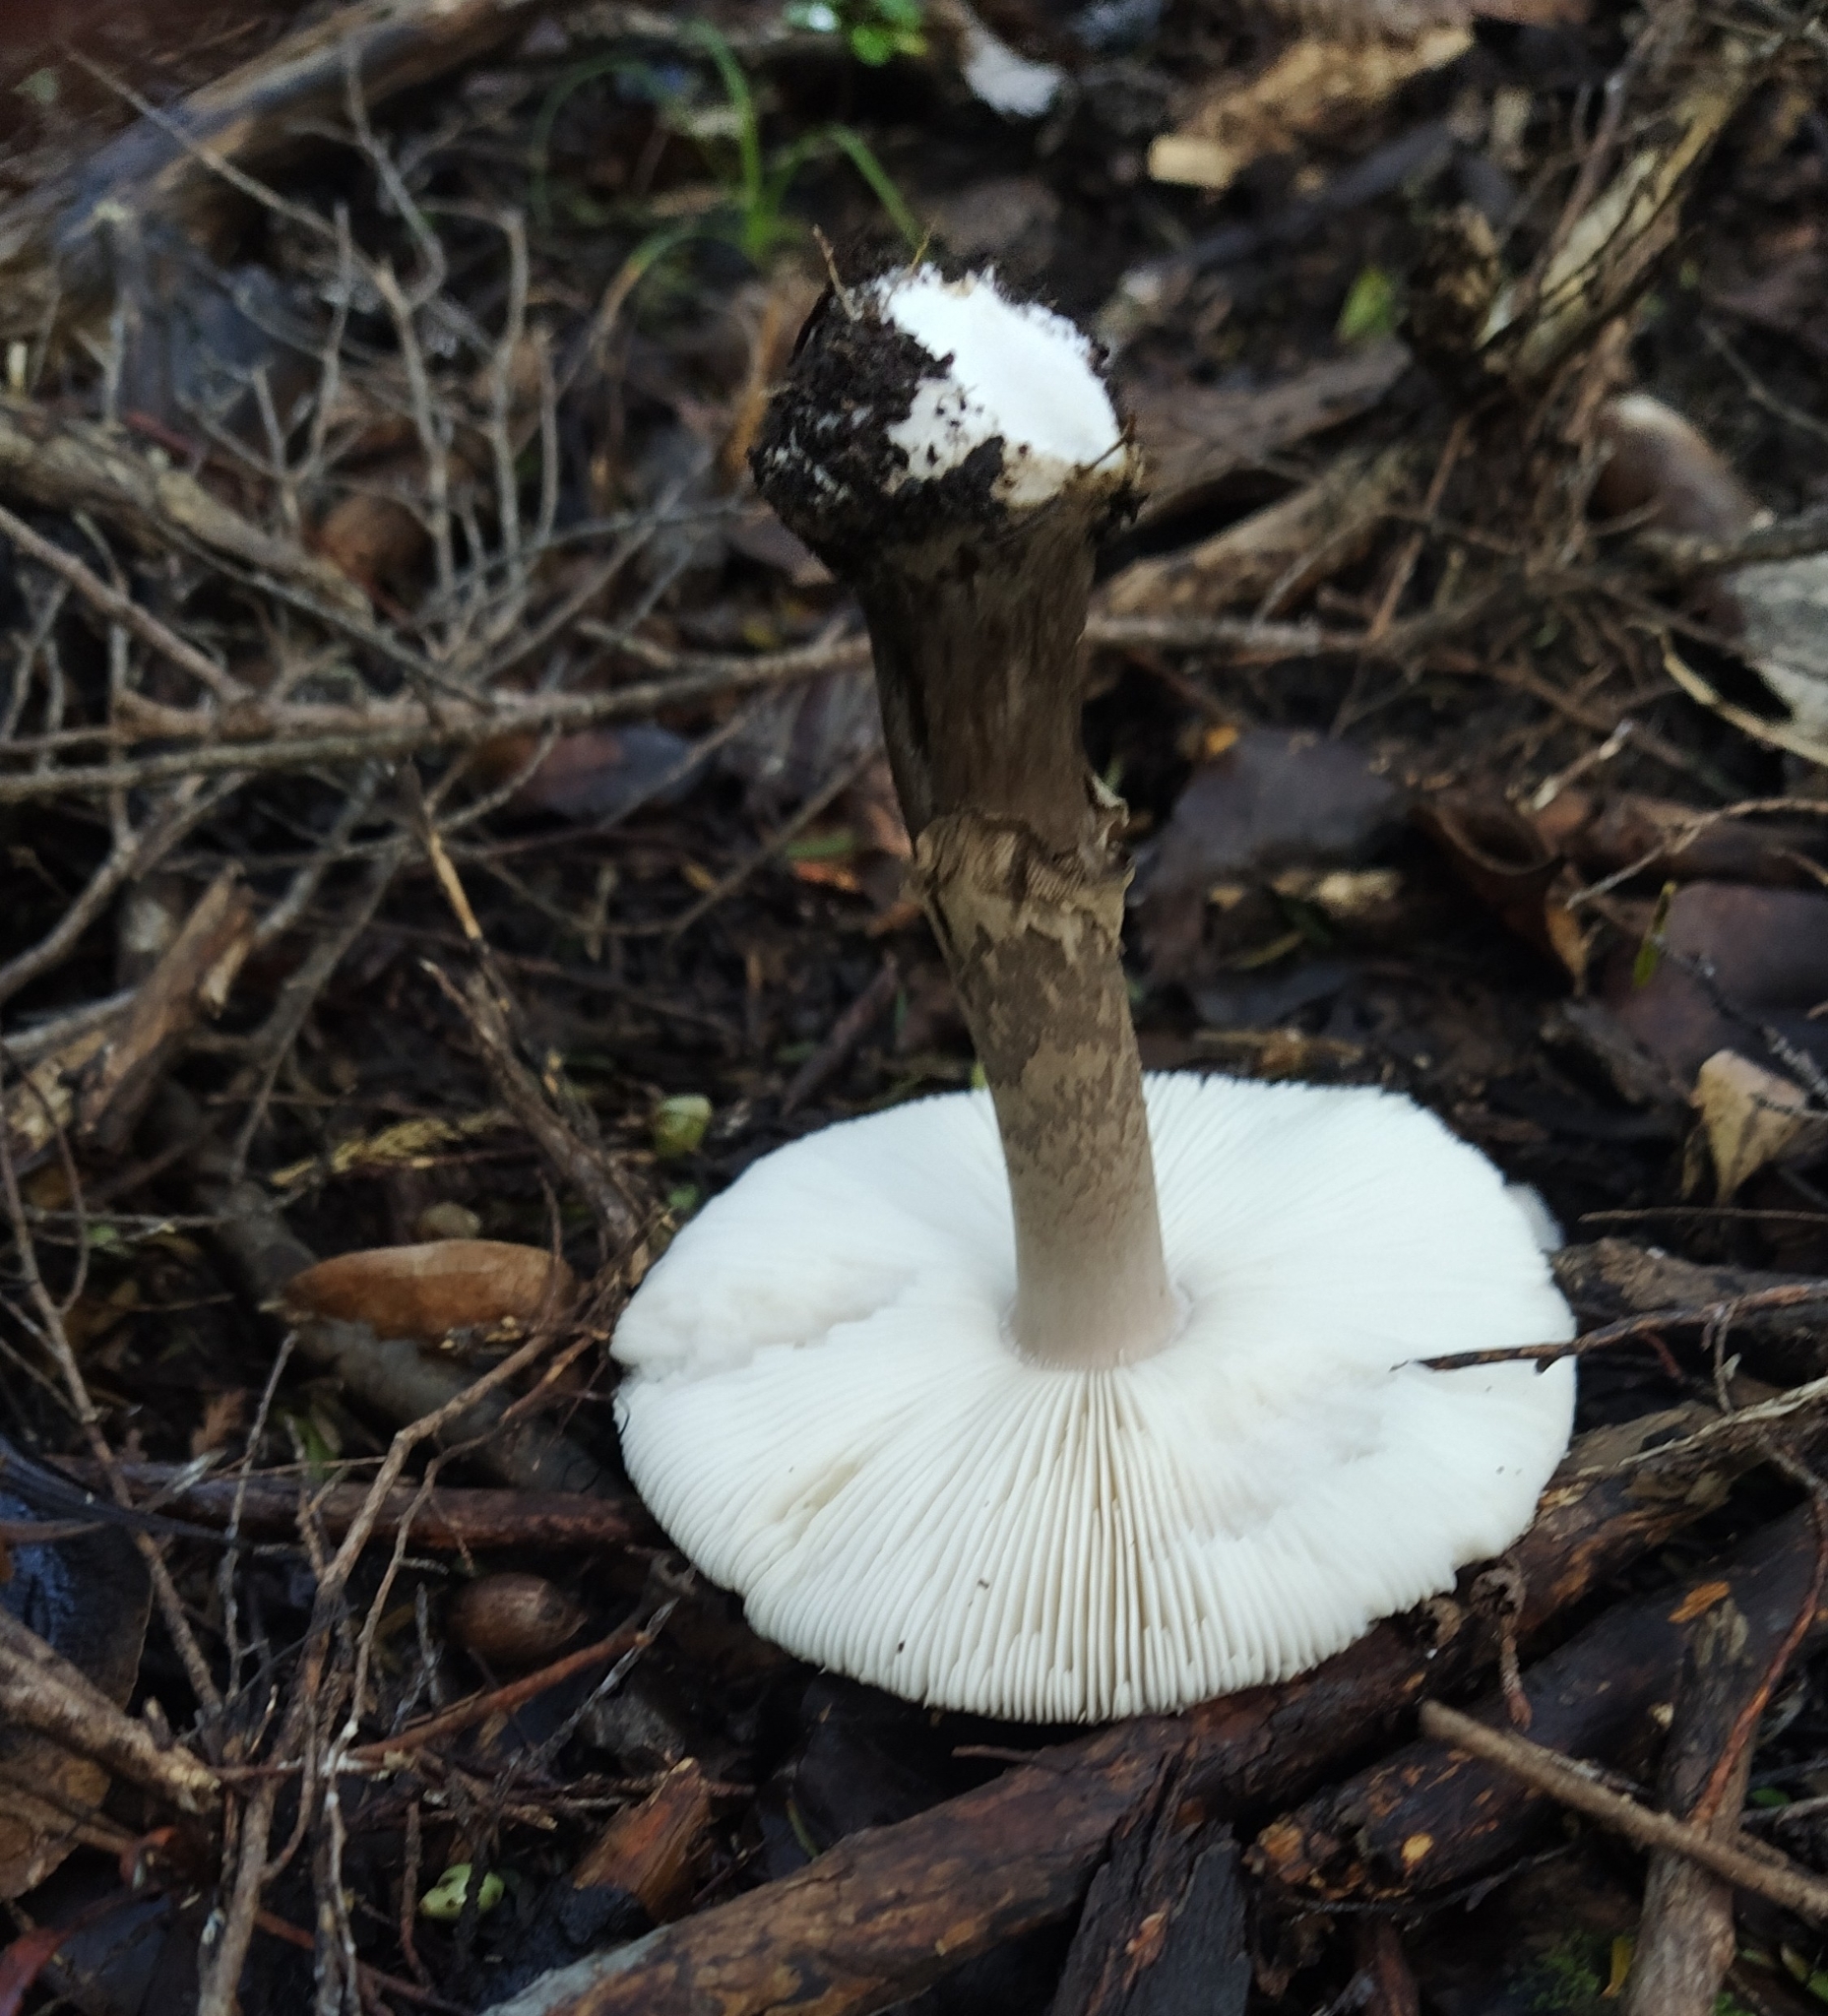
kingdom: Fungi
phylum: Basidiomycota
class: Agaricomycetes
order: Agaricales
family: Amanitaceae
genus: Amanita
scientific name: Amanita nothofagi
